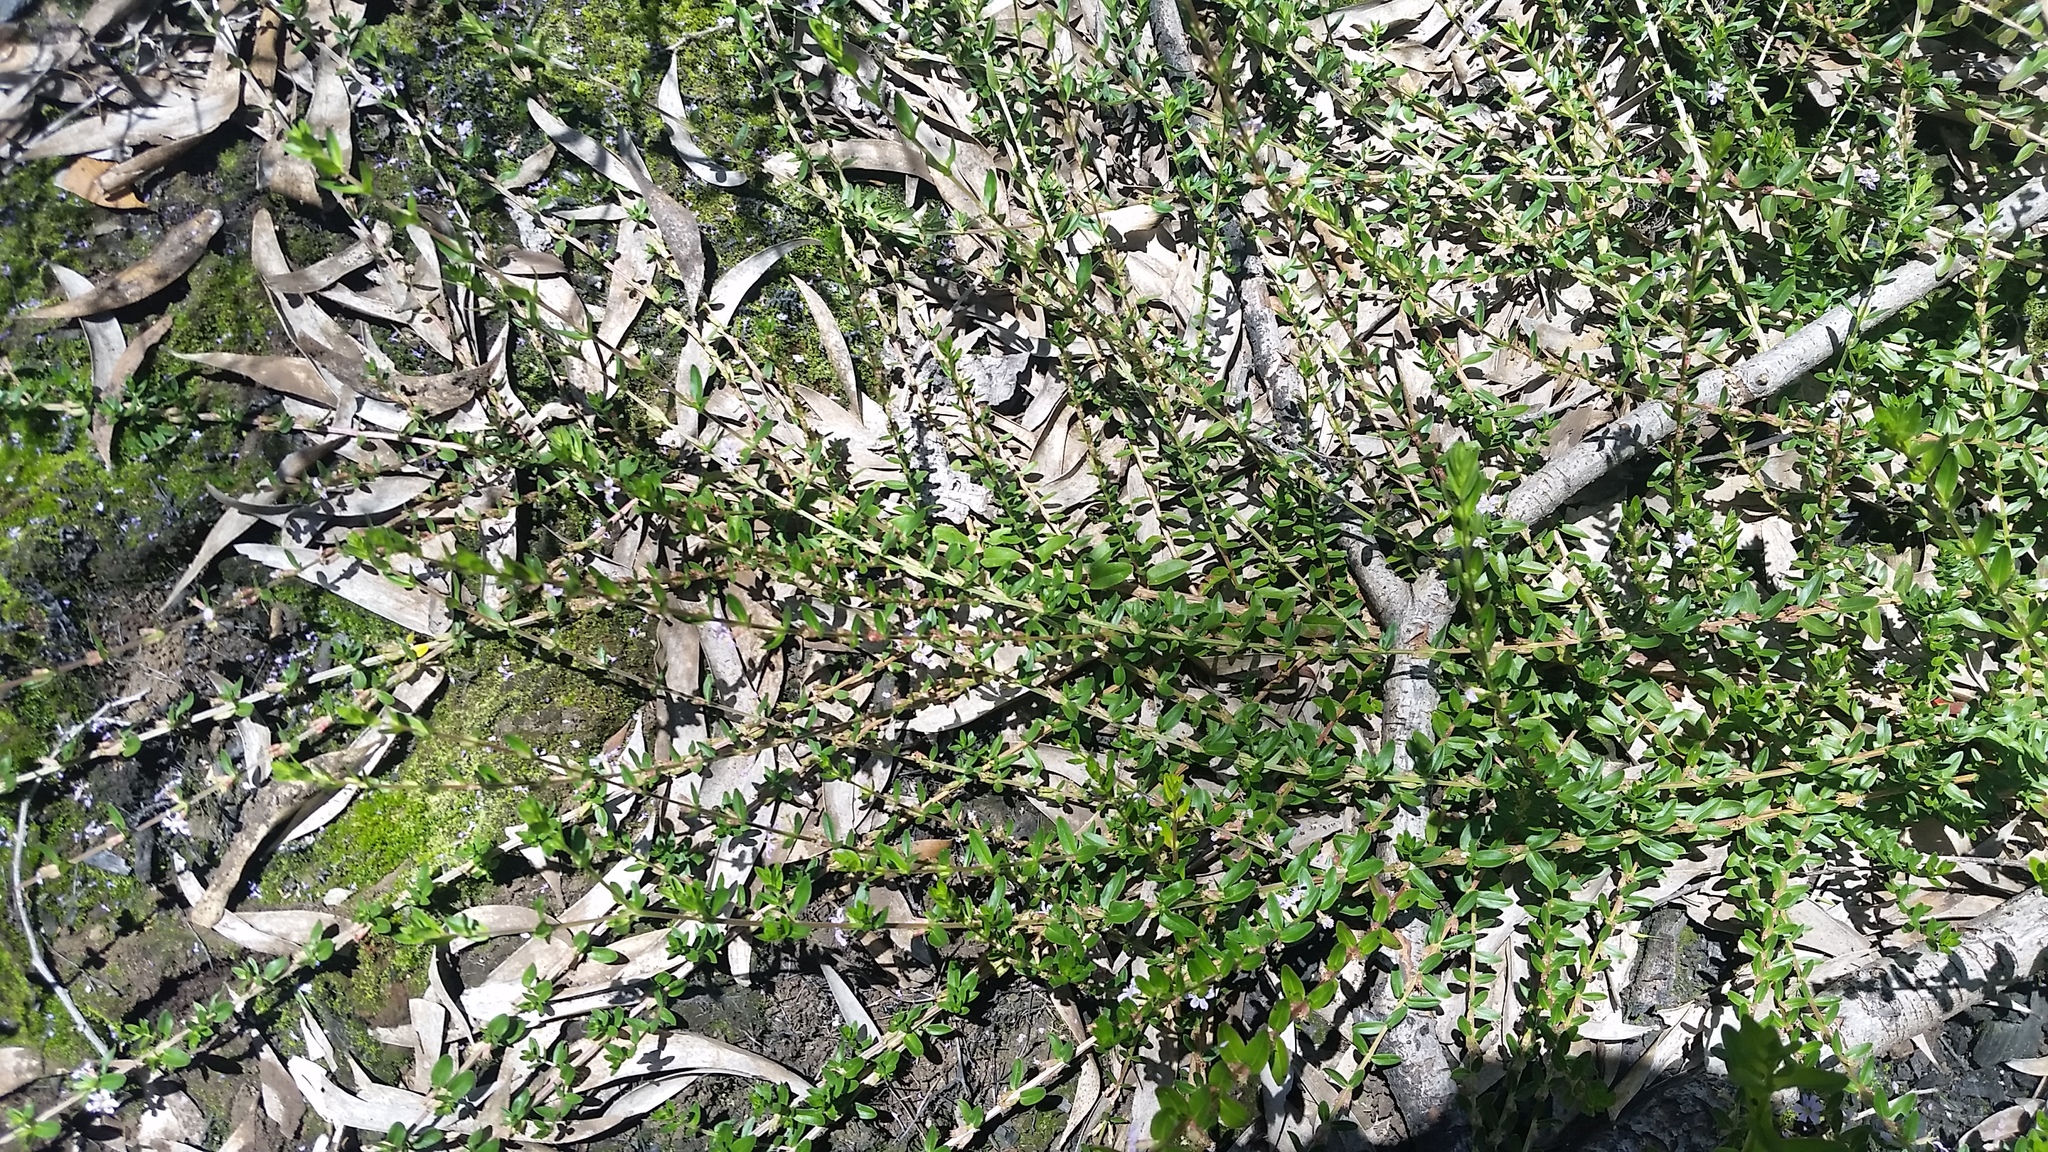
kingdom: Plantae
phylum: Tracheophyta
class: Magnoliopsida
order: Myrtales
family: Lythraceae
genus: Lythrum
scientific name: Lythrum maritimum
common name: Pukamole
